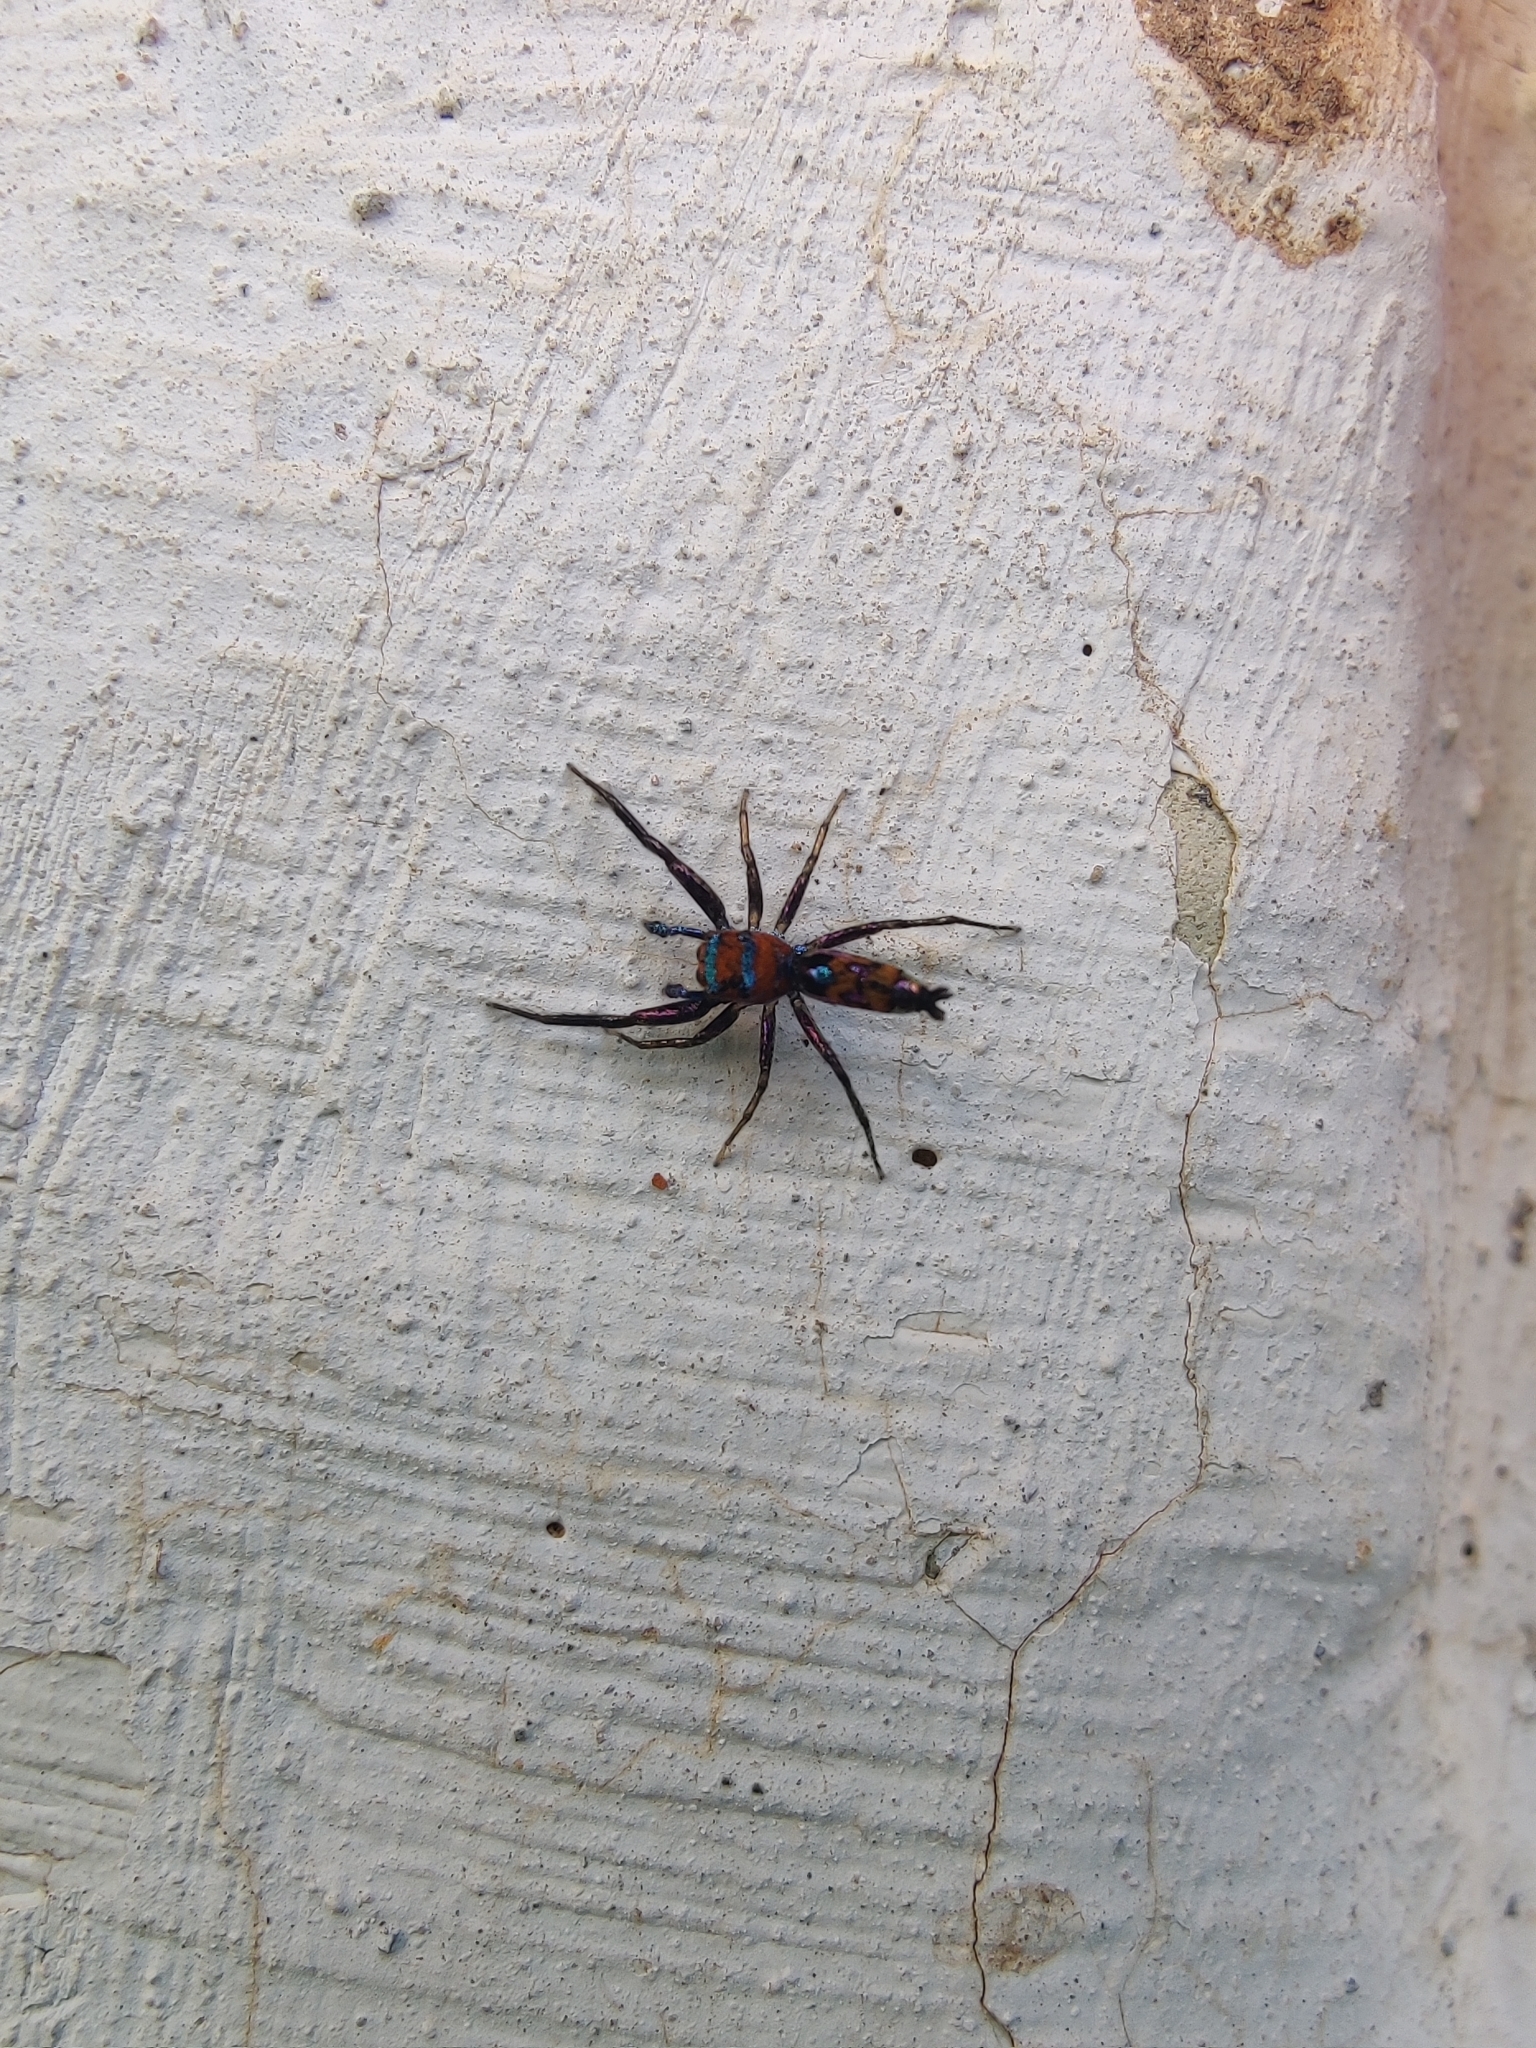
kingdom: Animalia
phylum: Arthropoda
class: Arachnida
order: Araneae
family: Salticidae
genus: Chrysilla
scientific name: Chrysilla volupe
